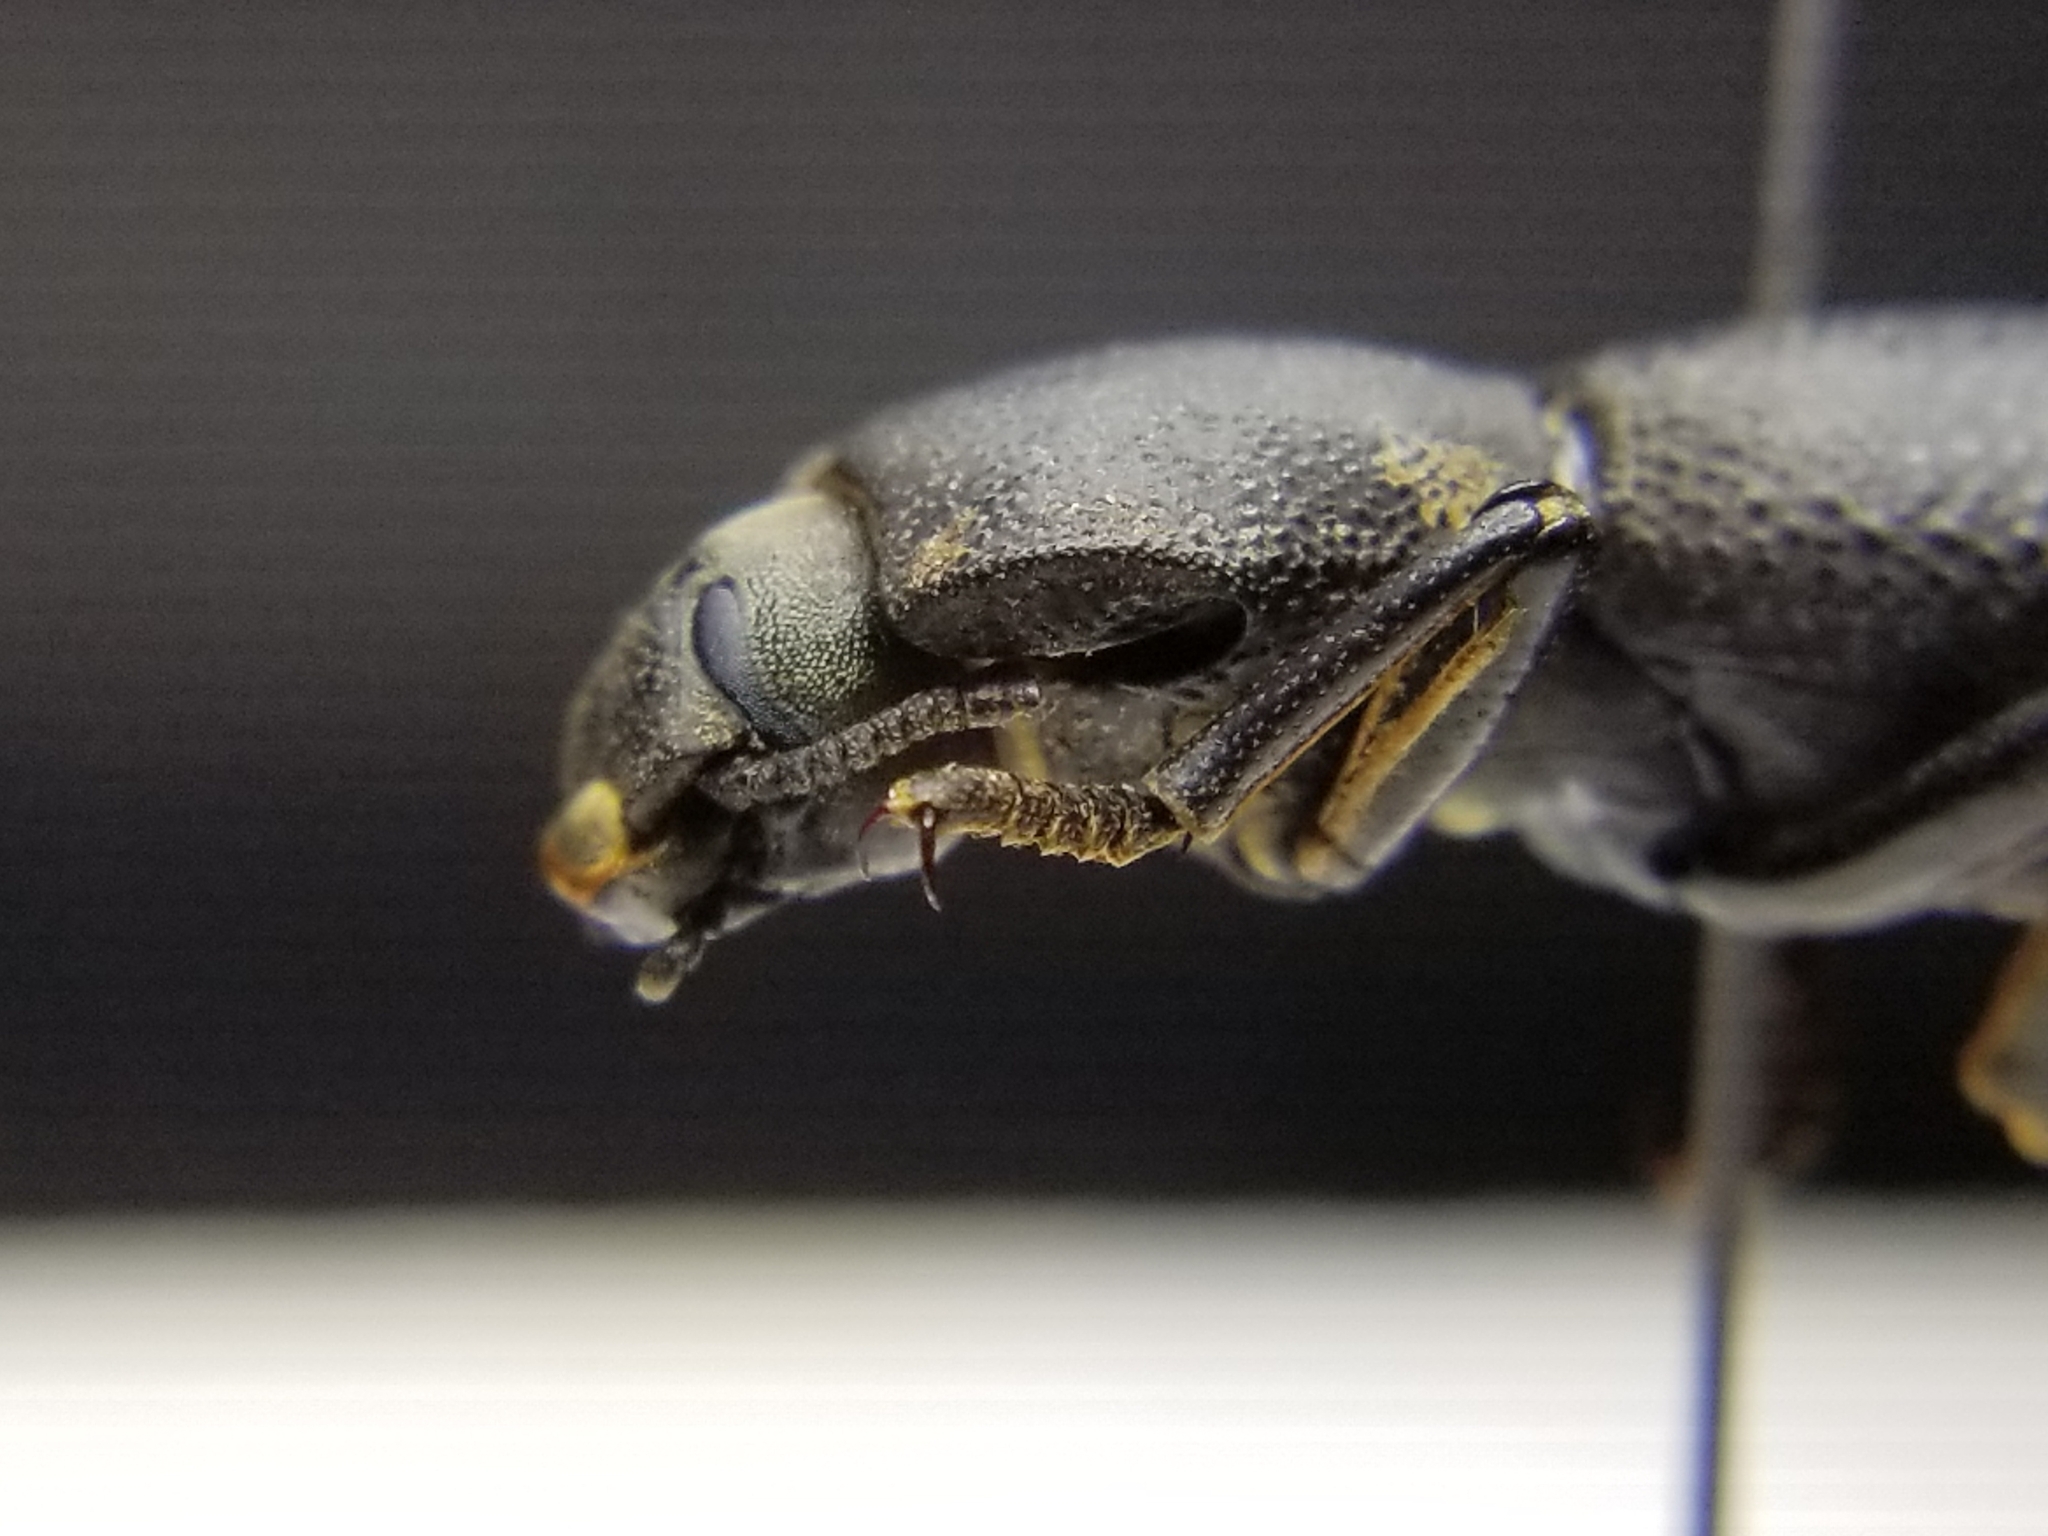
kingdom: Animalia
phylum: Arthropoda
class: Insecta
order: Coleoptera
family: Zopheridae
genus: Zopherus
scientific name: Zopherus uteanus
